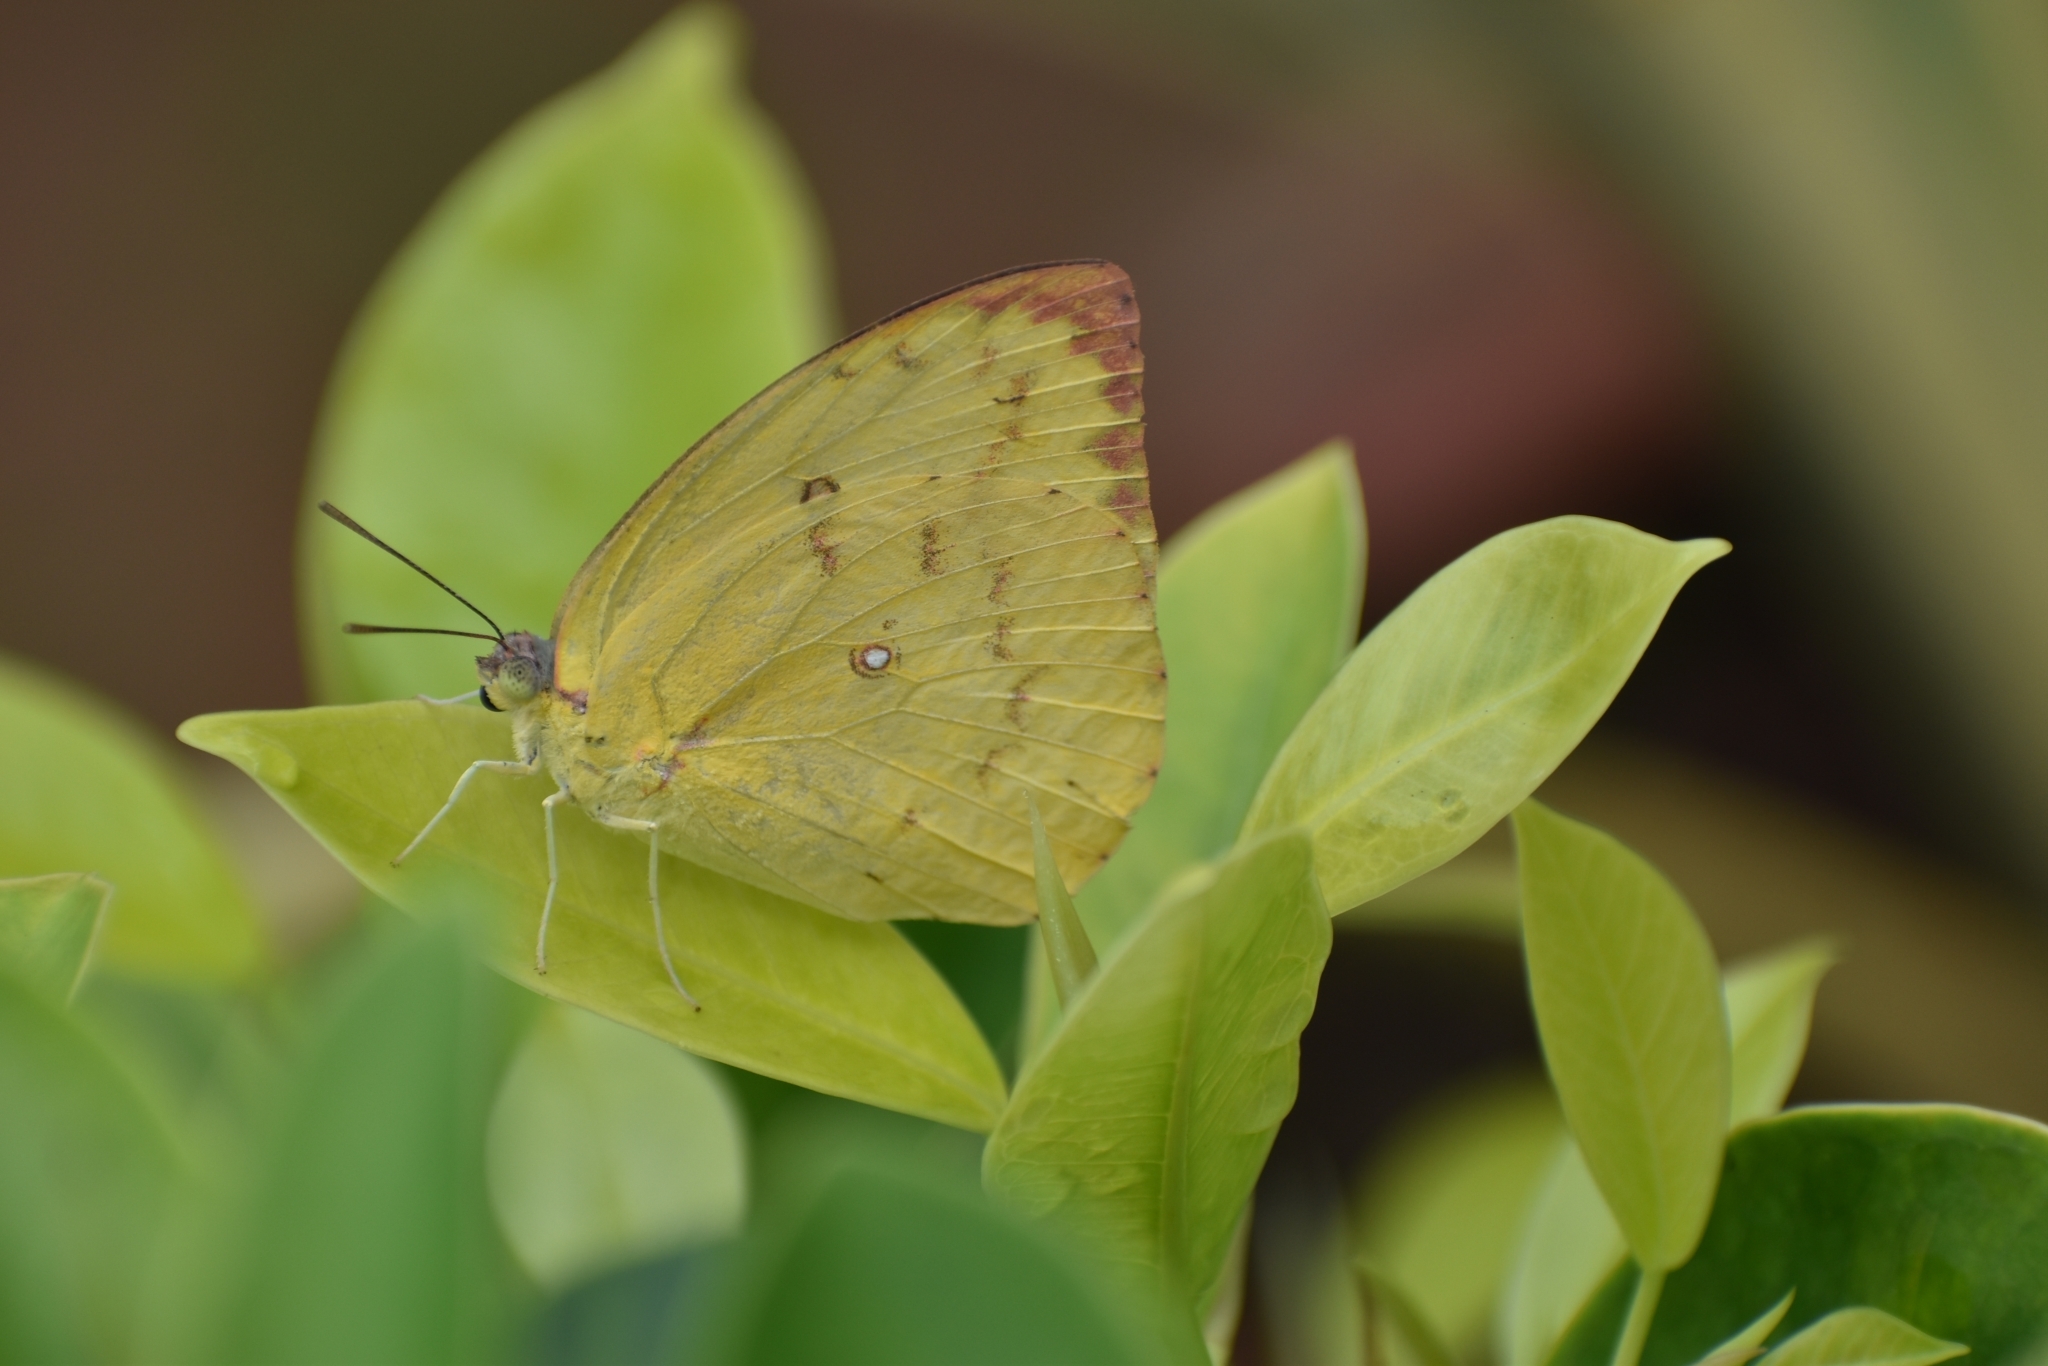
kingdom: Animalia
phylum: Arthropoda
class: Insecta
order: Lepidoptera
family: Pieridae
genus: Catopsilia
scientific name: Catopsilia pomona
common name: Common emigrant
